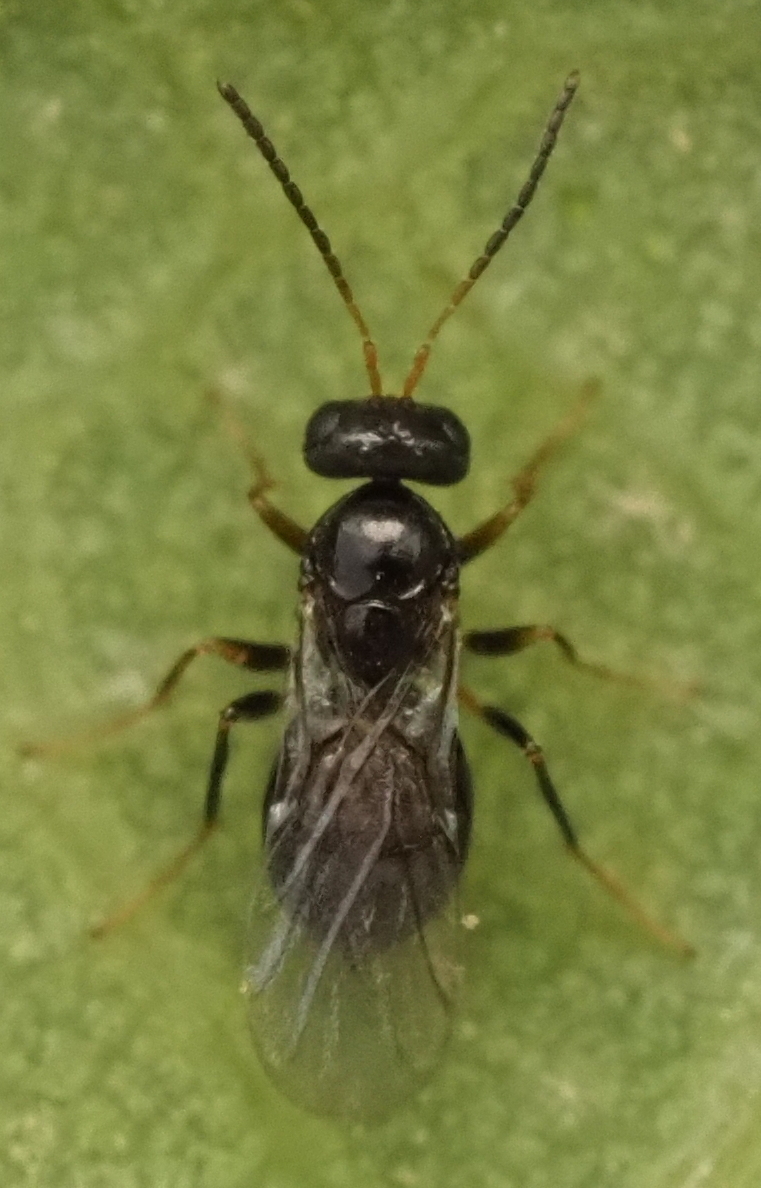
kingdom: Animalia
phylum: Arthropoda
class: Insecta
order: Hymenoptera
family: Cynipidae
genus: Neuroterus
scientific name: Neuroterus
